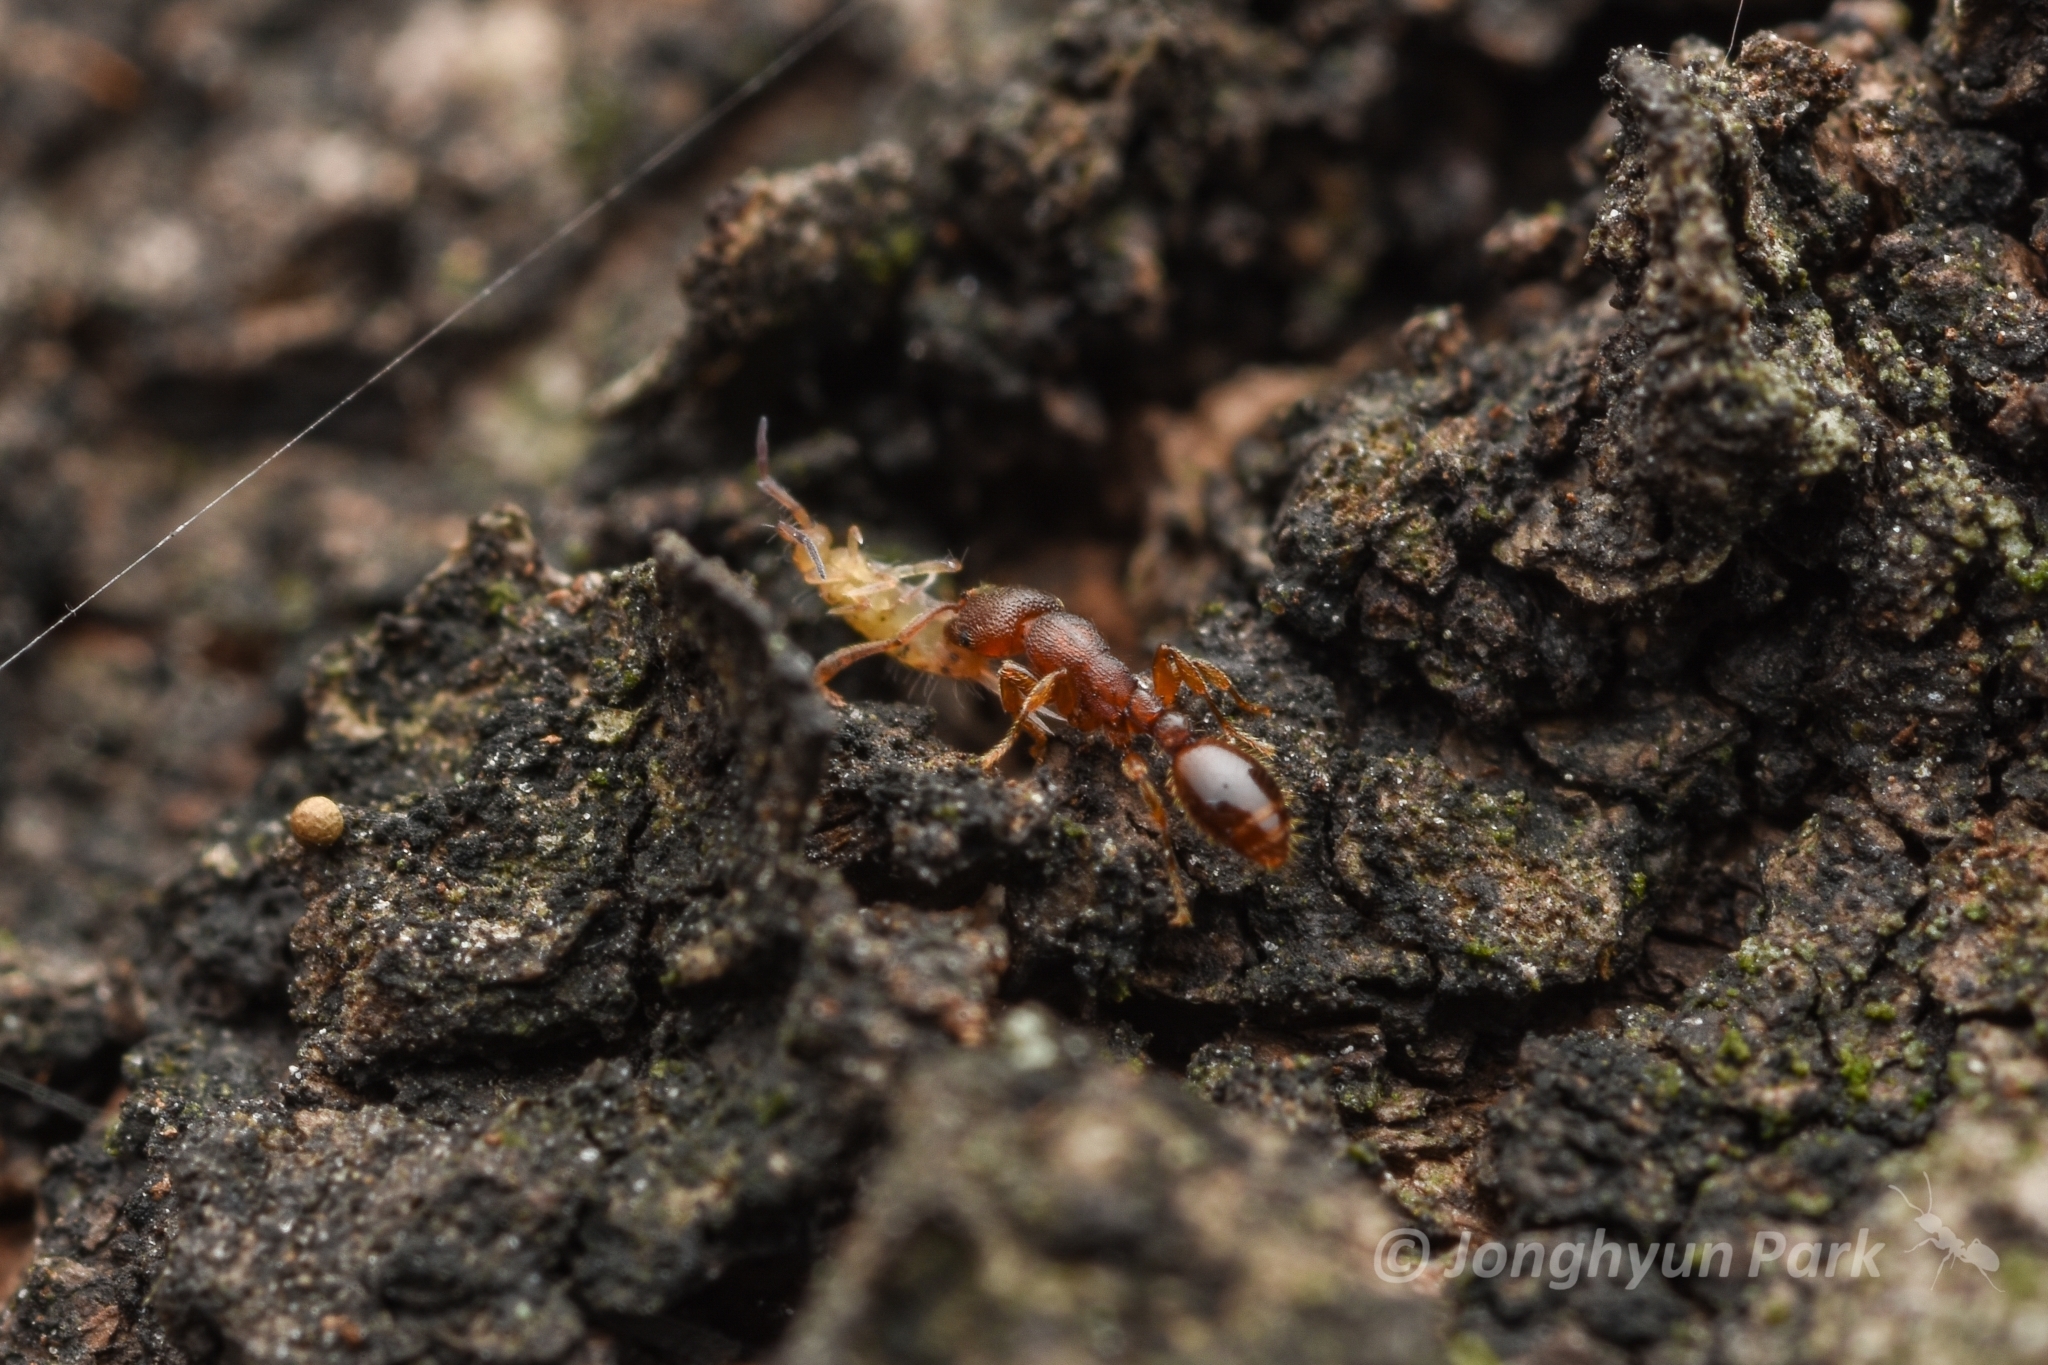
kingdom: Animalia
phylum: Arthropoda
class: Insecta
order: Hymenoptera
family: Formicidae
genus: Vollenhovia
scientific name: Vollenhovia emeryi
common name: Ant
